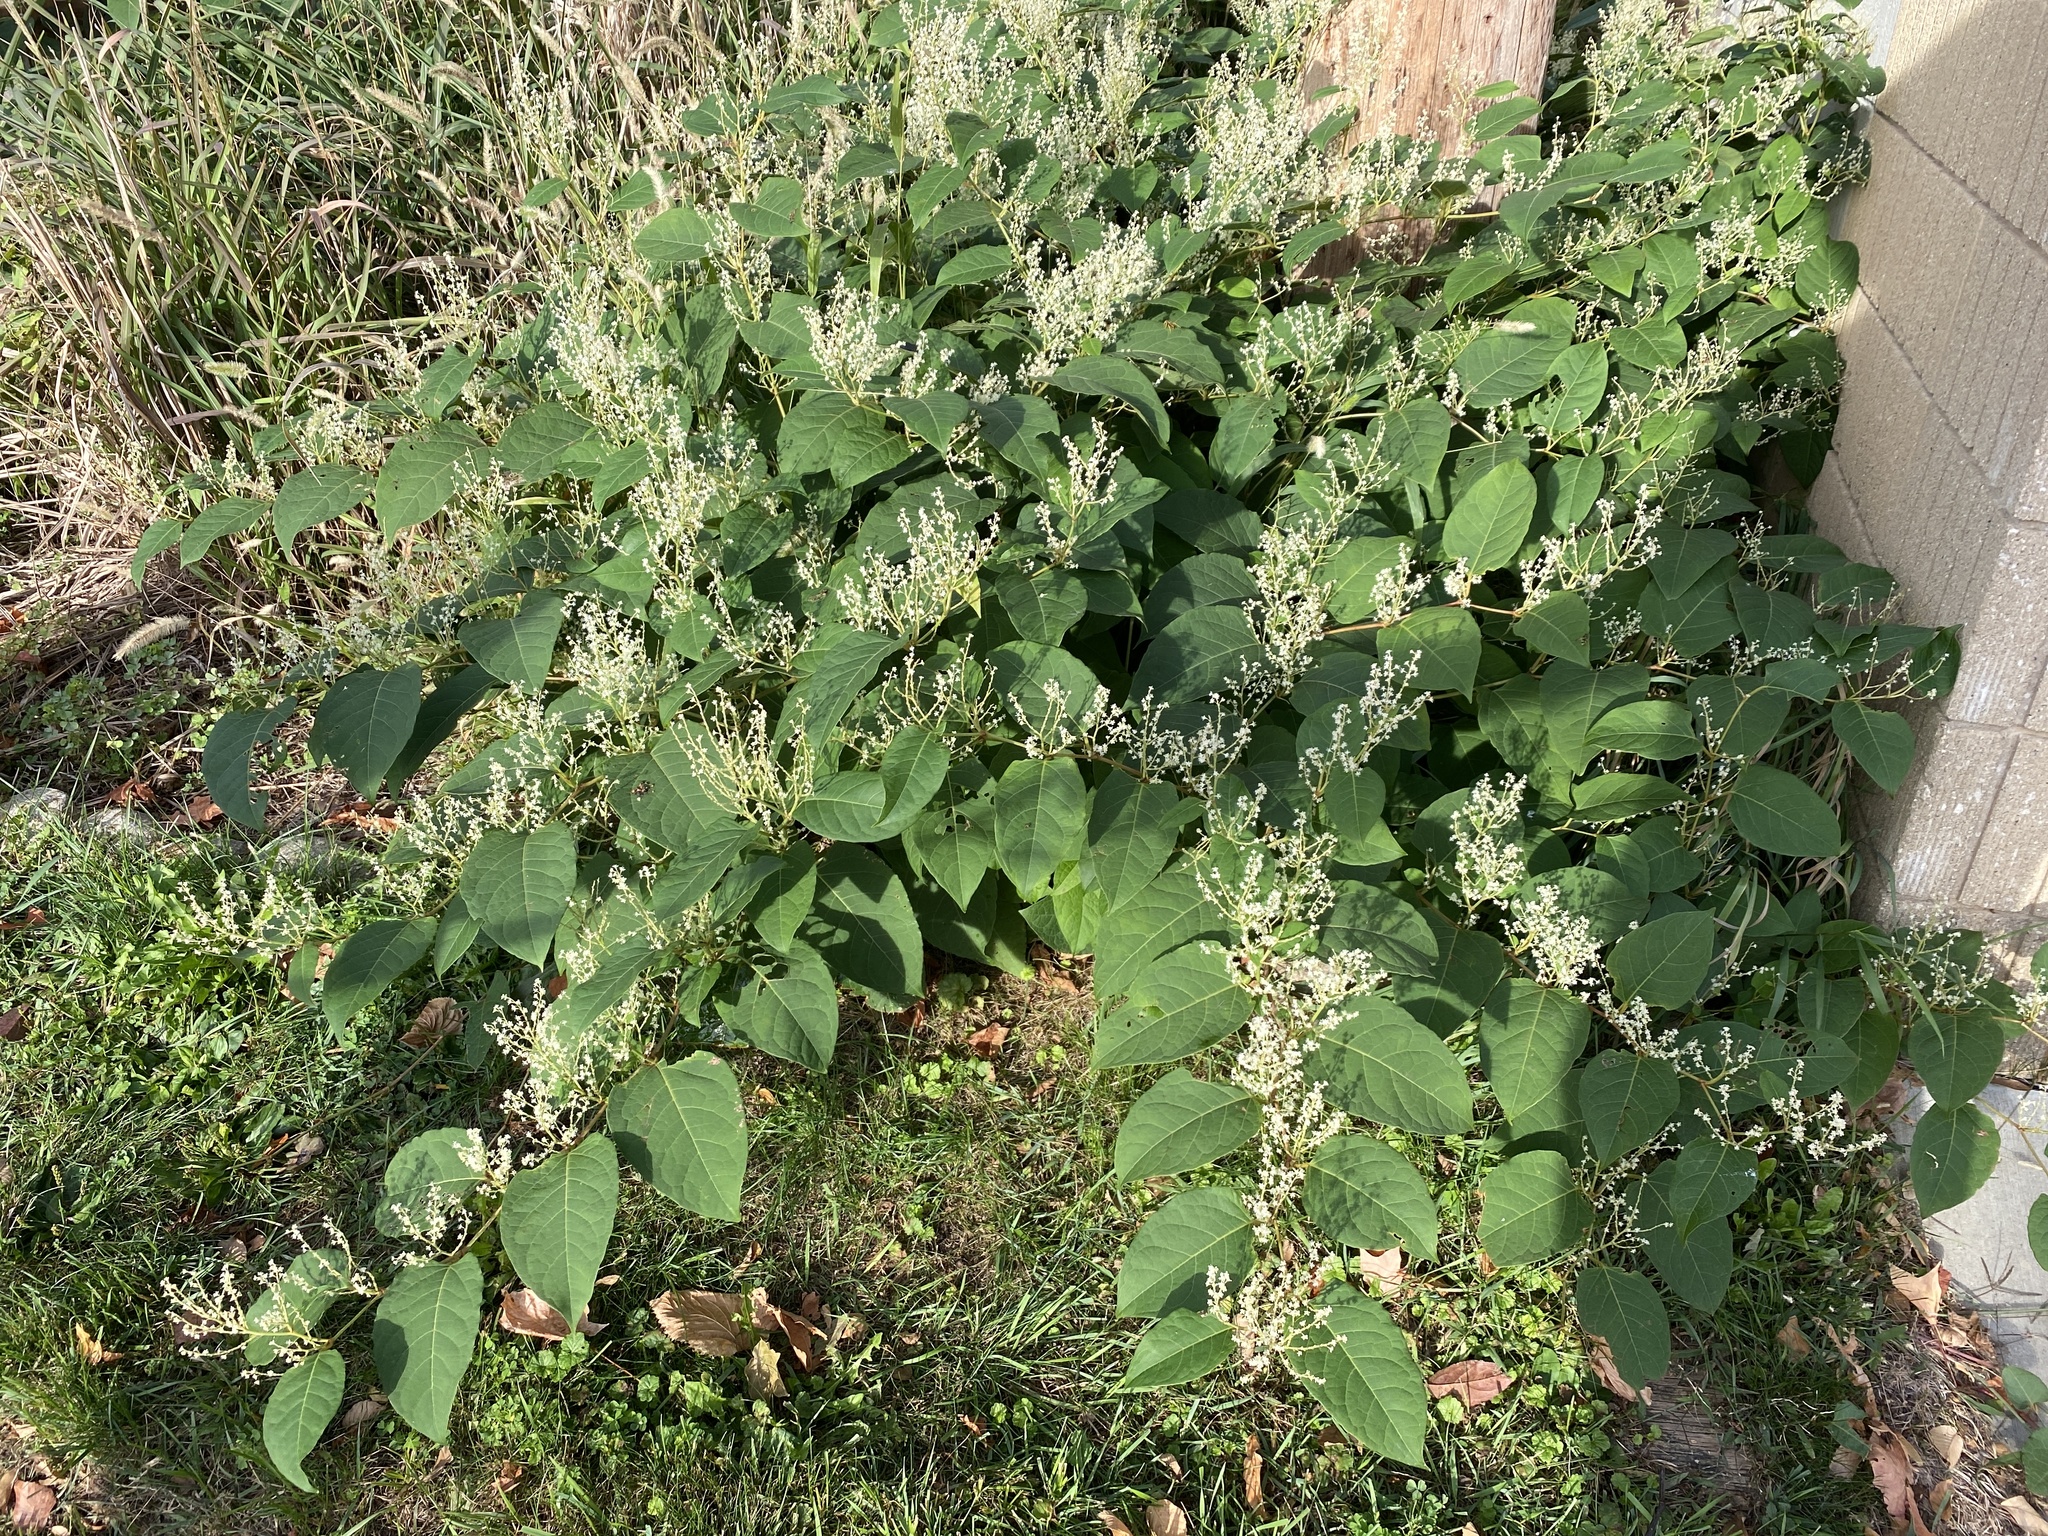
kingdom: Plantae
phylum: Tracheophyta
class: Magnoliopsida
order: Caryophyllales
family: Polygonaceae
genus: Reynoutria
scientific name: Reynoutria japonica
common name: Japanese knotweed
